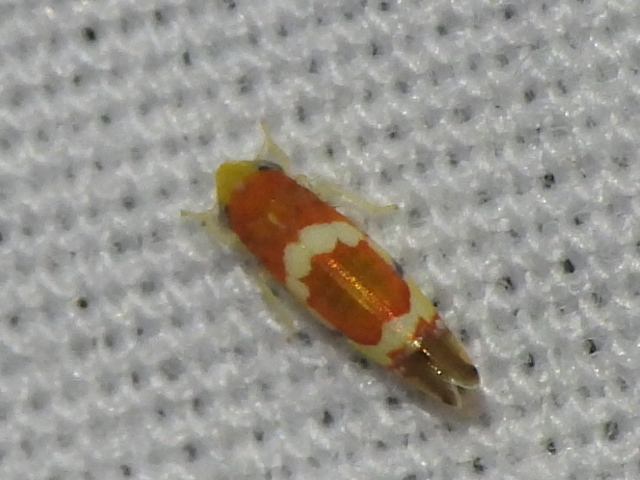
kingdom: Animalia
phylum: Arthropoda
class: Insecta
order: Hemiptera
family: Cicadellidae
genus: Erythroneura
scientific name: Erythroneura vitis
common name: Grapevine leafhopper
